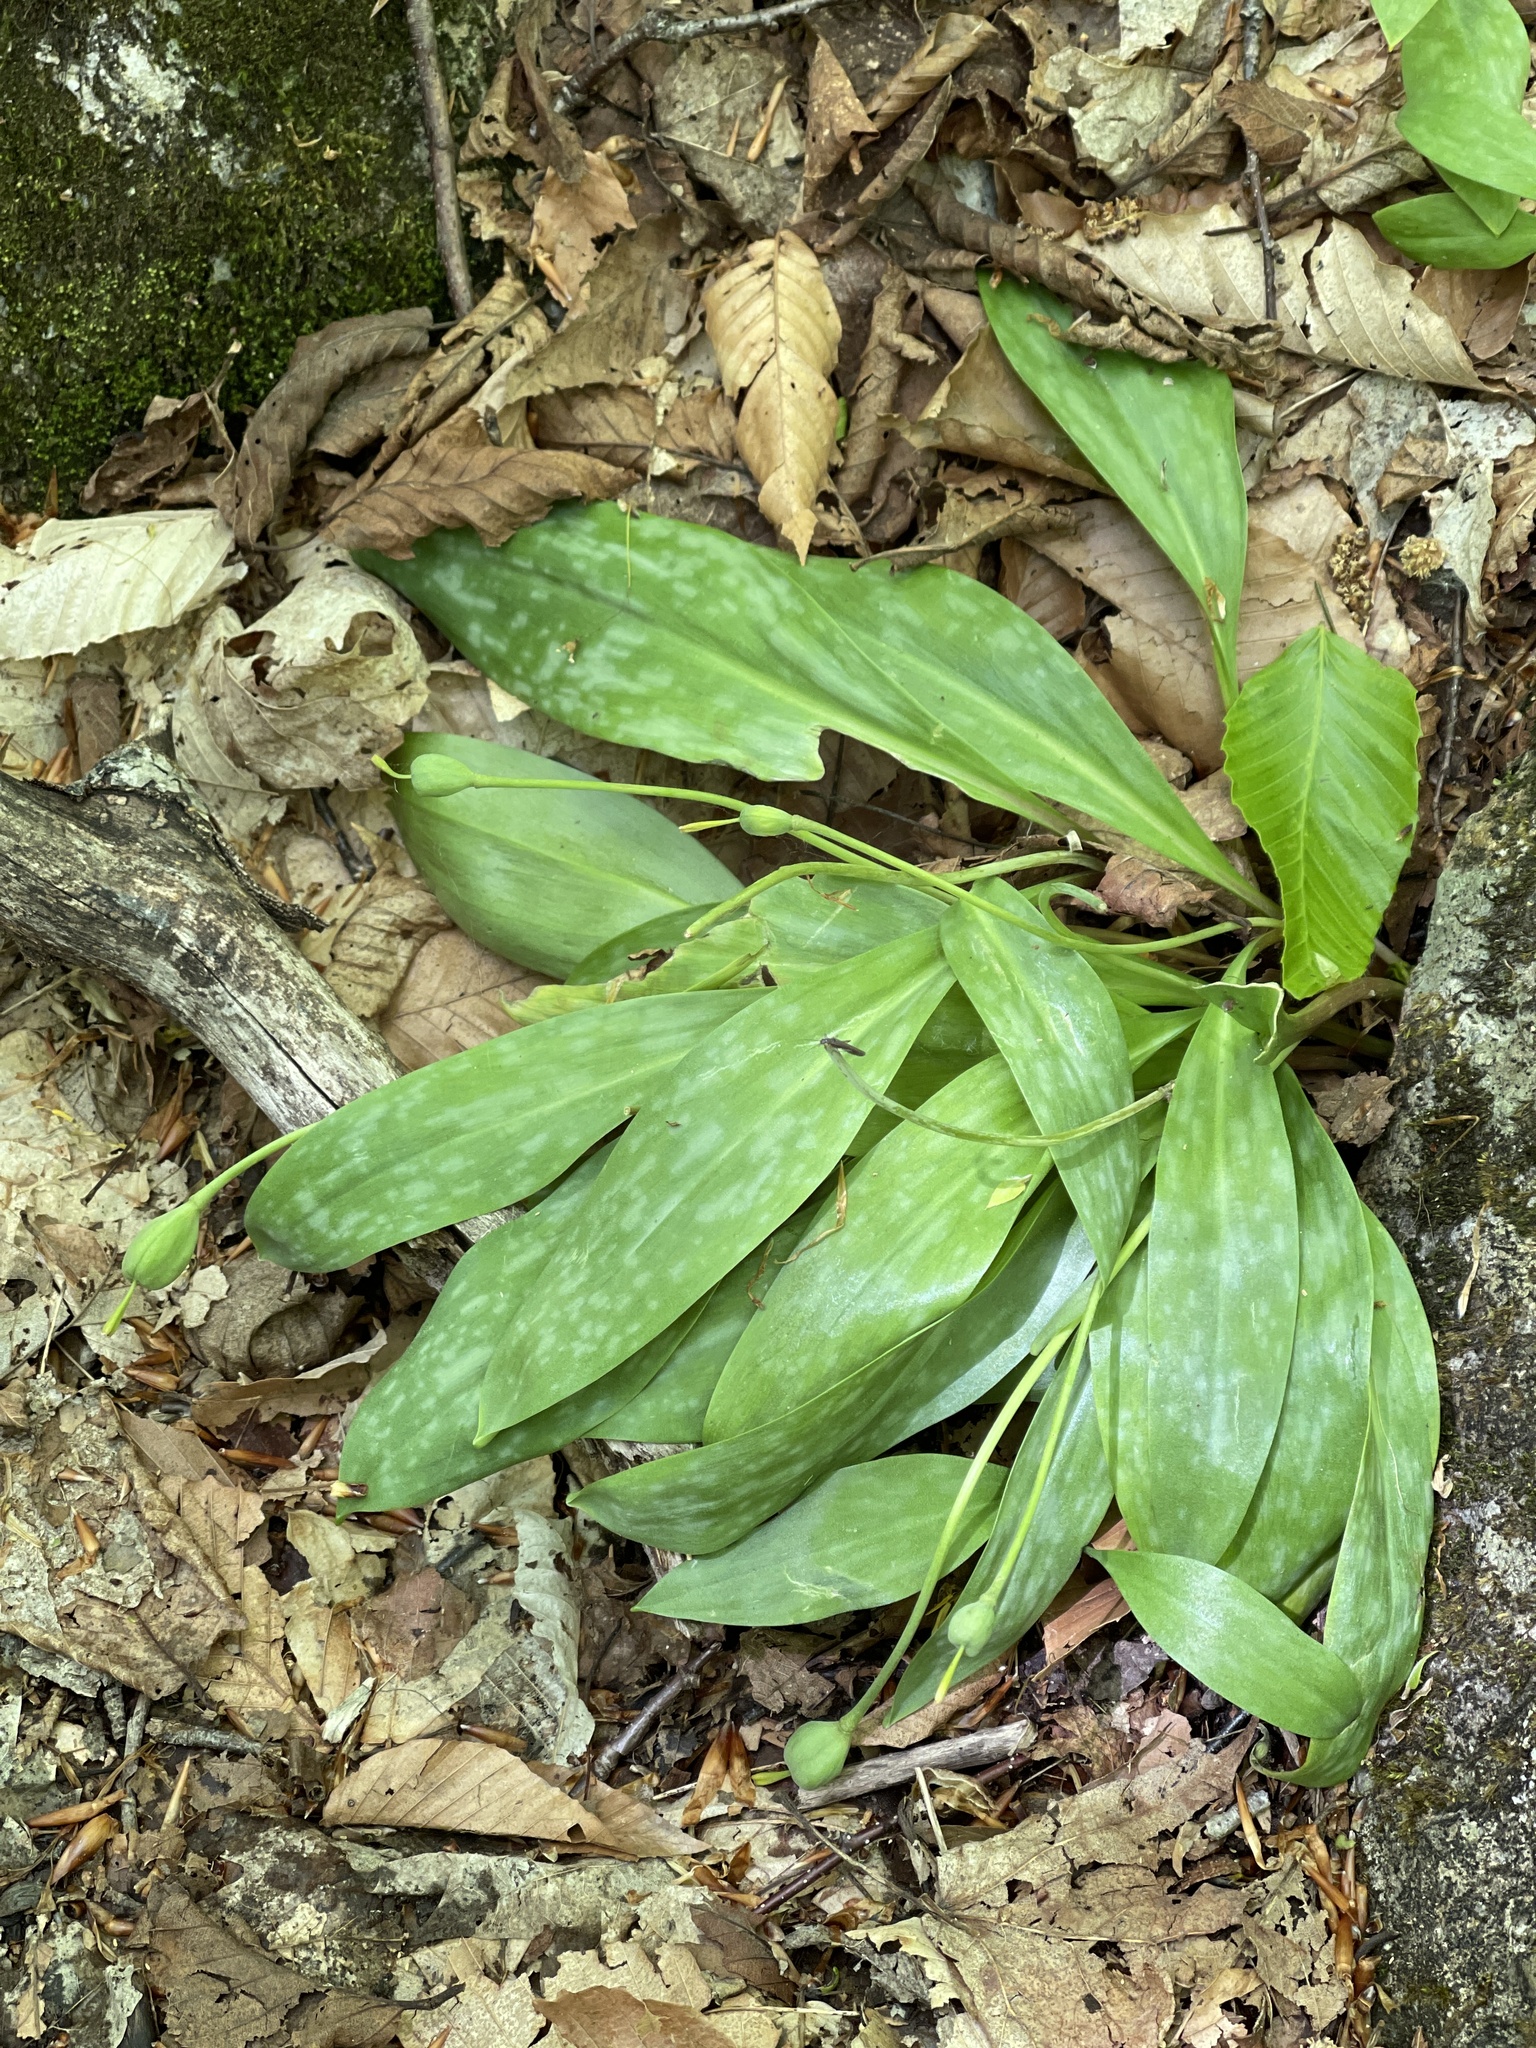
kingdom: Plantae
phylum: Tracheophyta
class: Liliopsida
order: Liliales
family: Liliaceae
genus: Erythronium
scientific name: Erythronium americanum
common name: Yellow adder's-tongue
